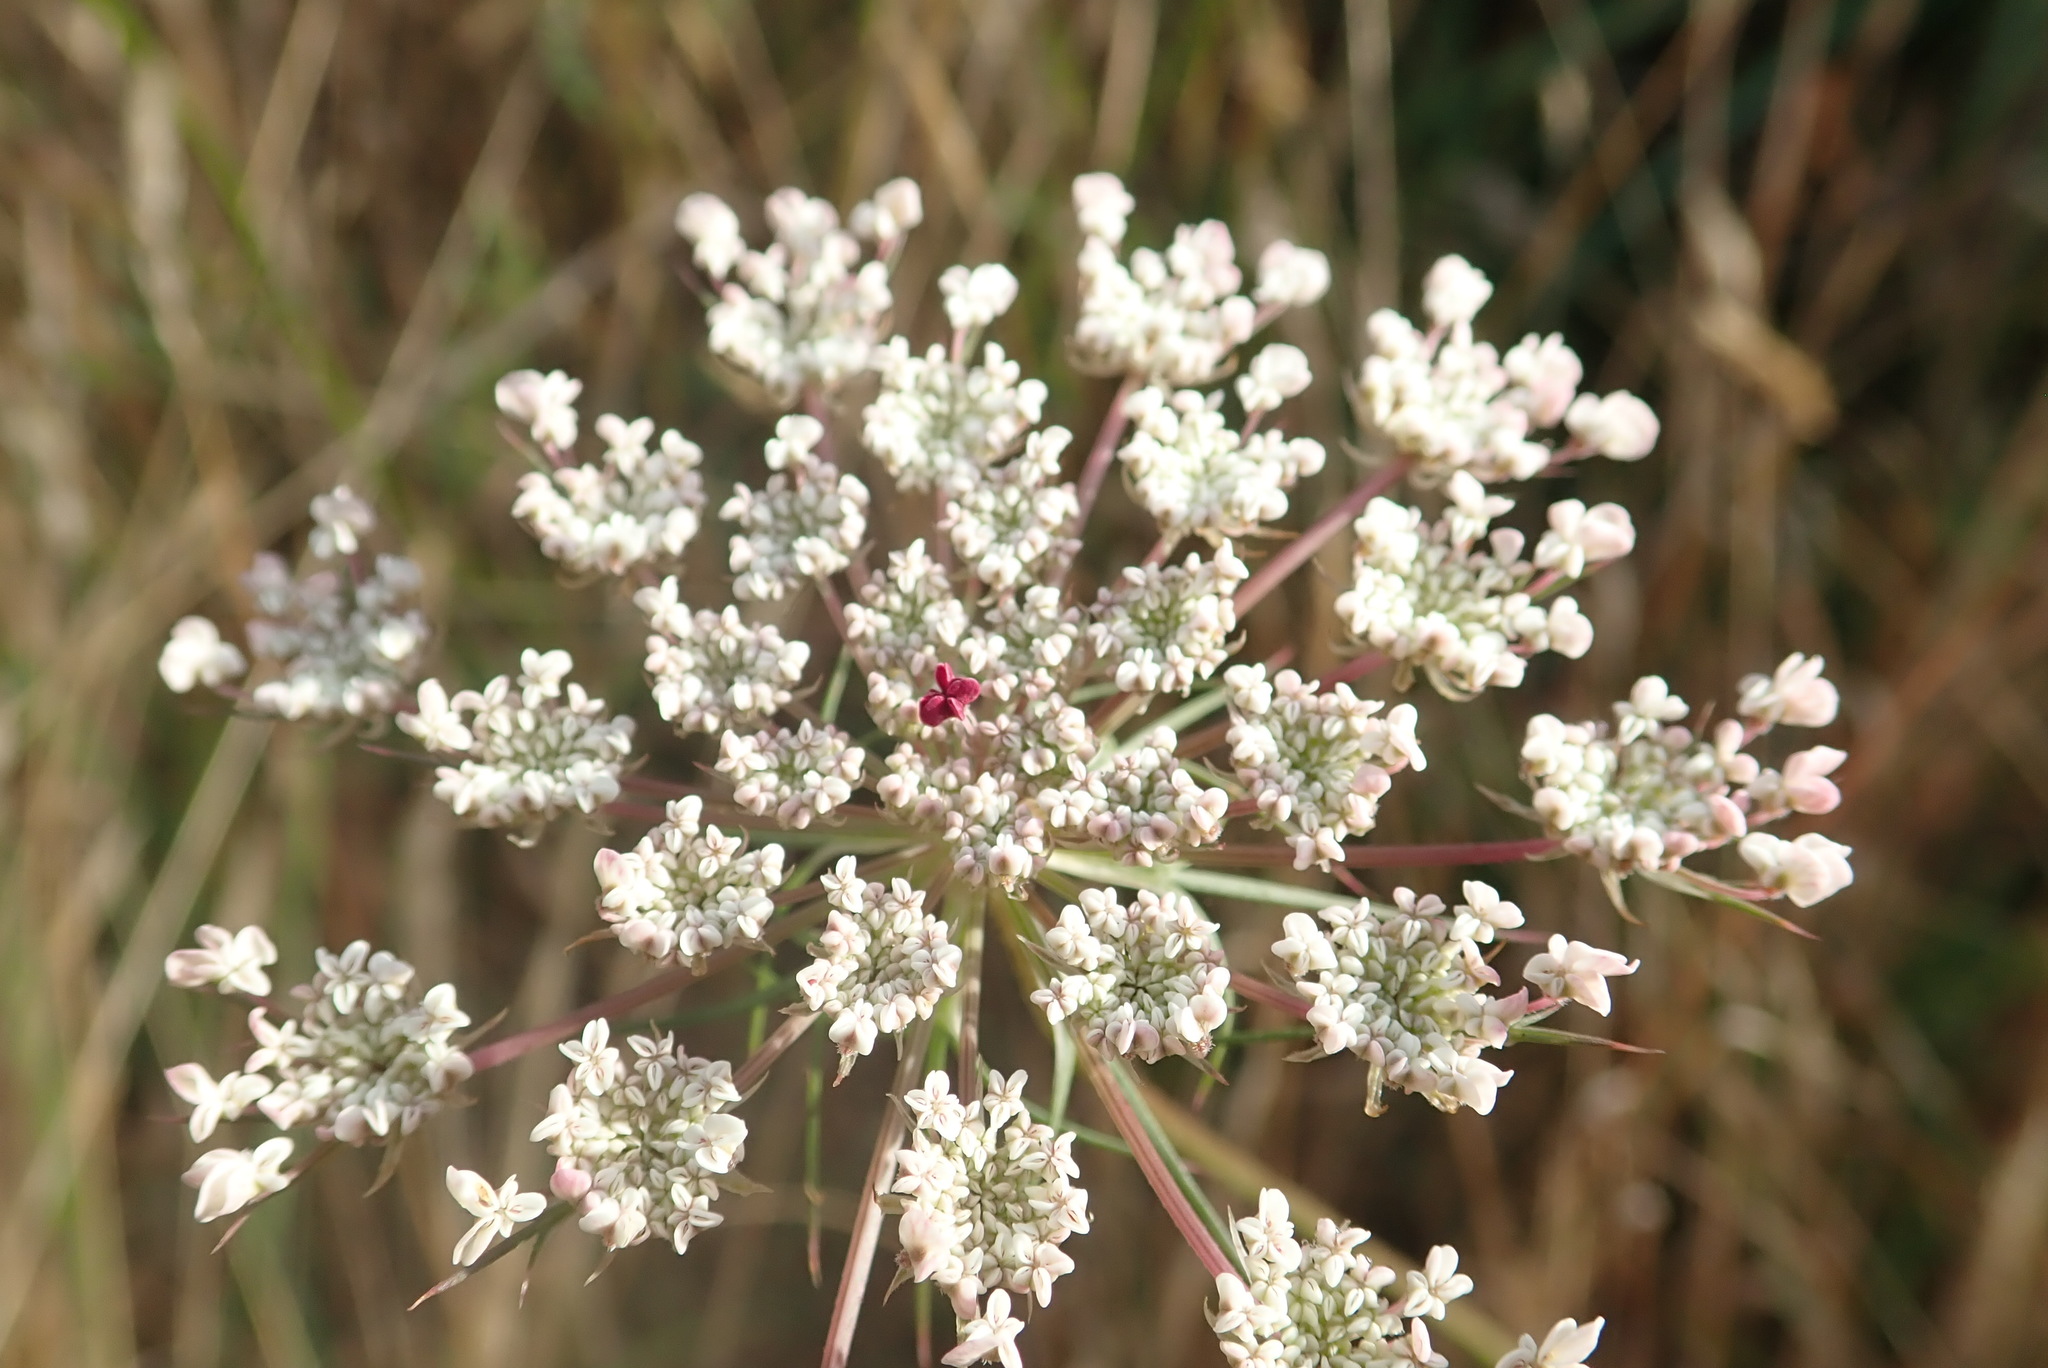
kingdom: Plantae
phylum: Tracheophyta
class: Magnoliopsida
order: Apiales
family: Apiaceae
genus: Daucus
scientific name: Daucus carota
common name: Wild carrot
